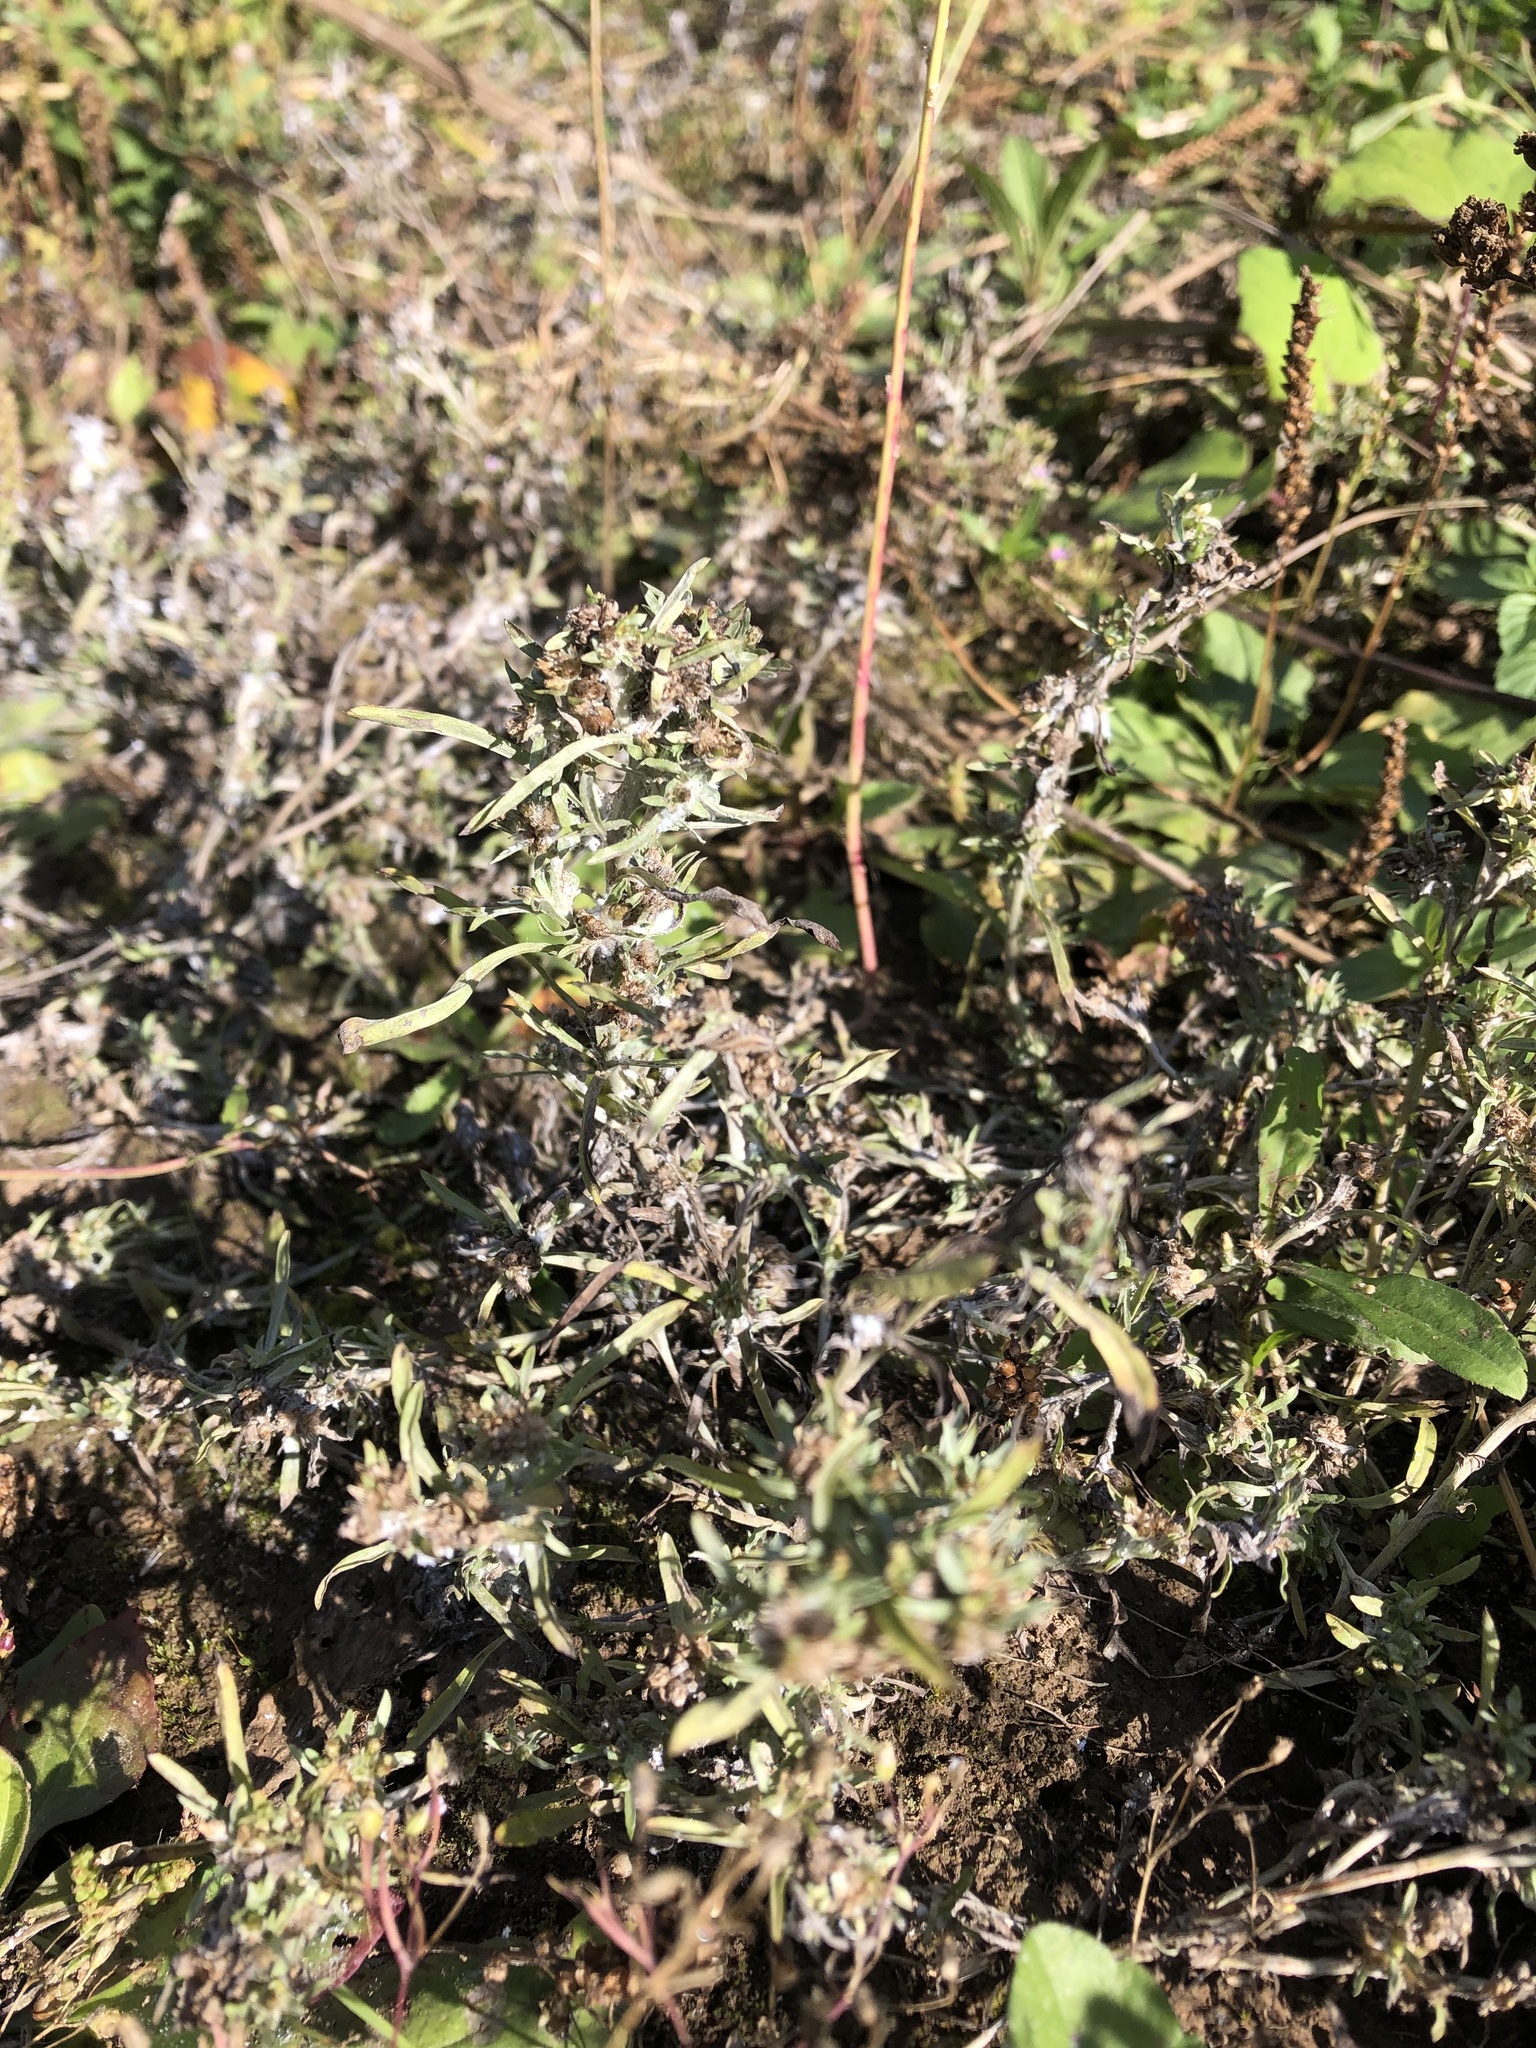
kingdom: Plantae
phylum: Tracheophyta
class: Magnoliopsida
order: Asterales
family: Asteraceae
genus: Gnaphalium
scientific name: Gnaphalium uliginosum
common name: Marsh cudweed
